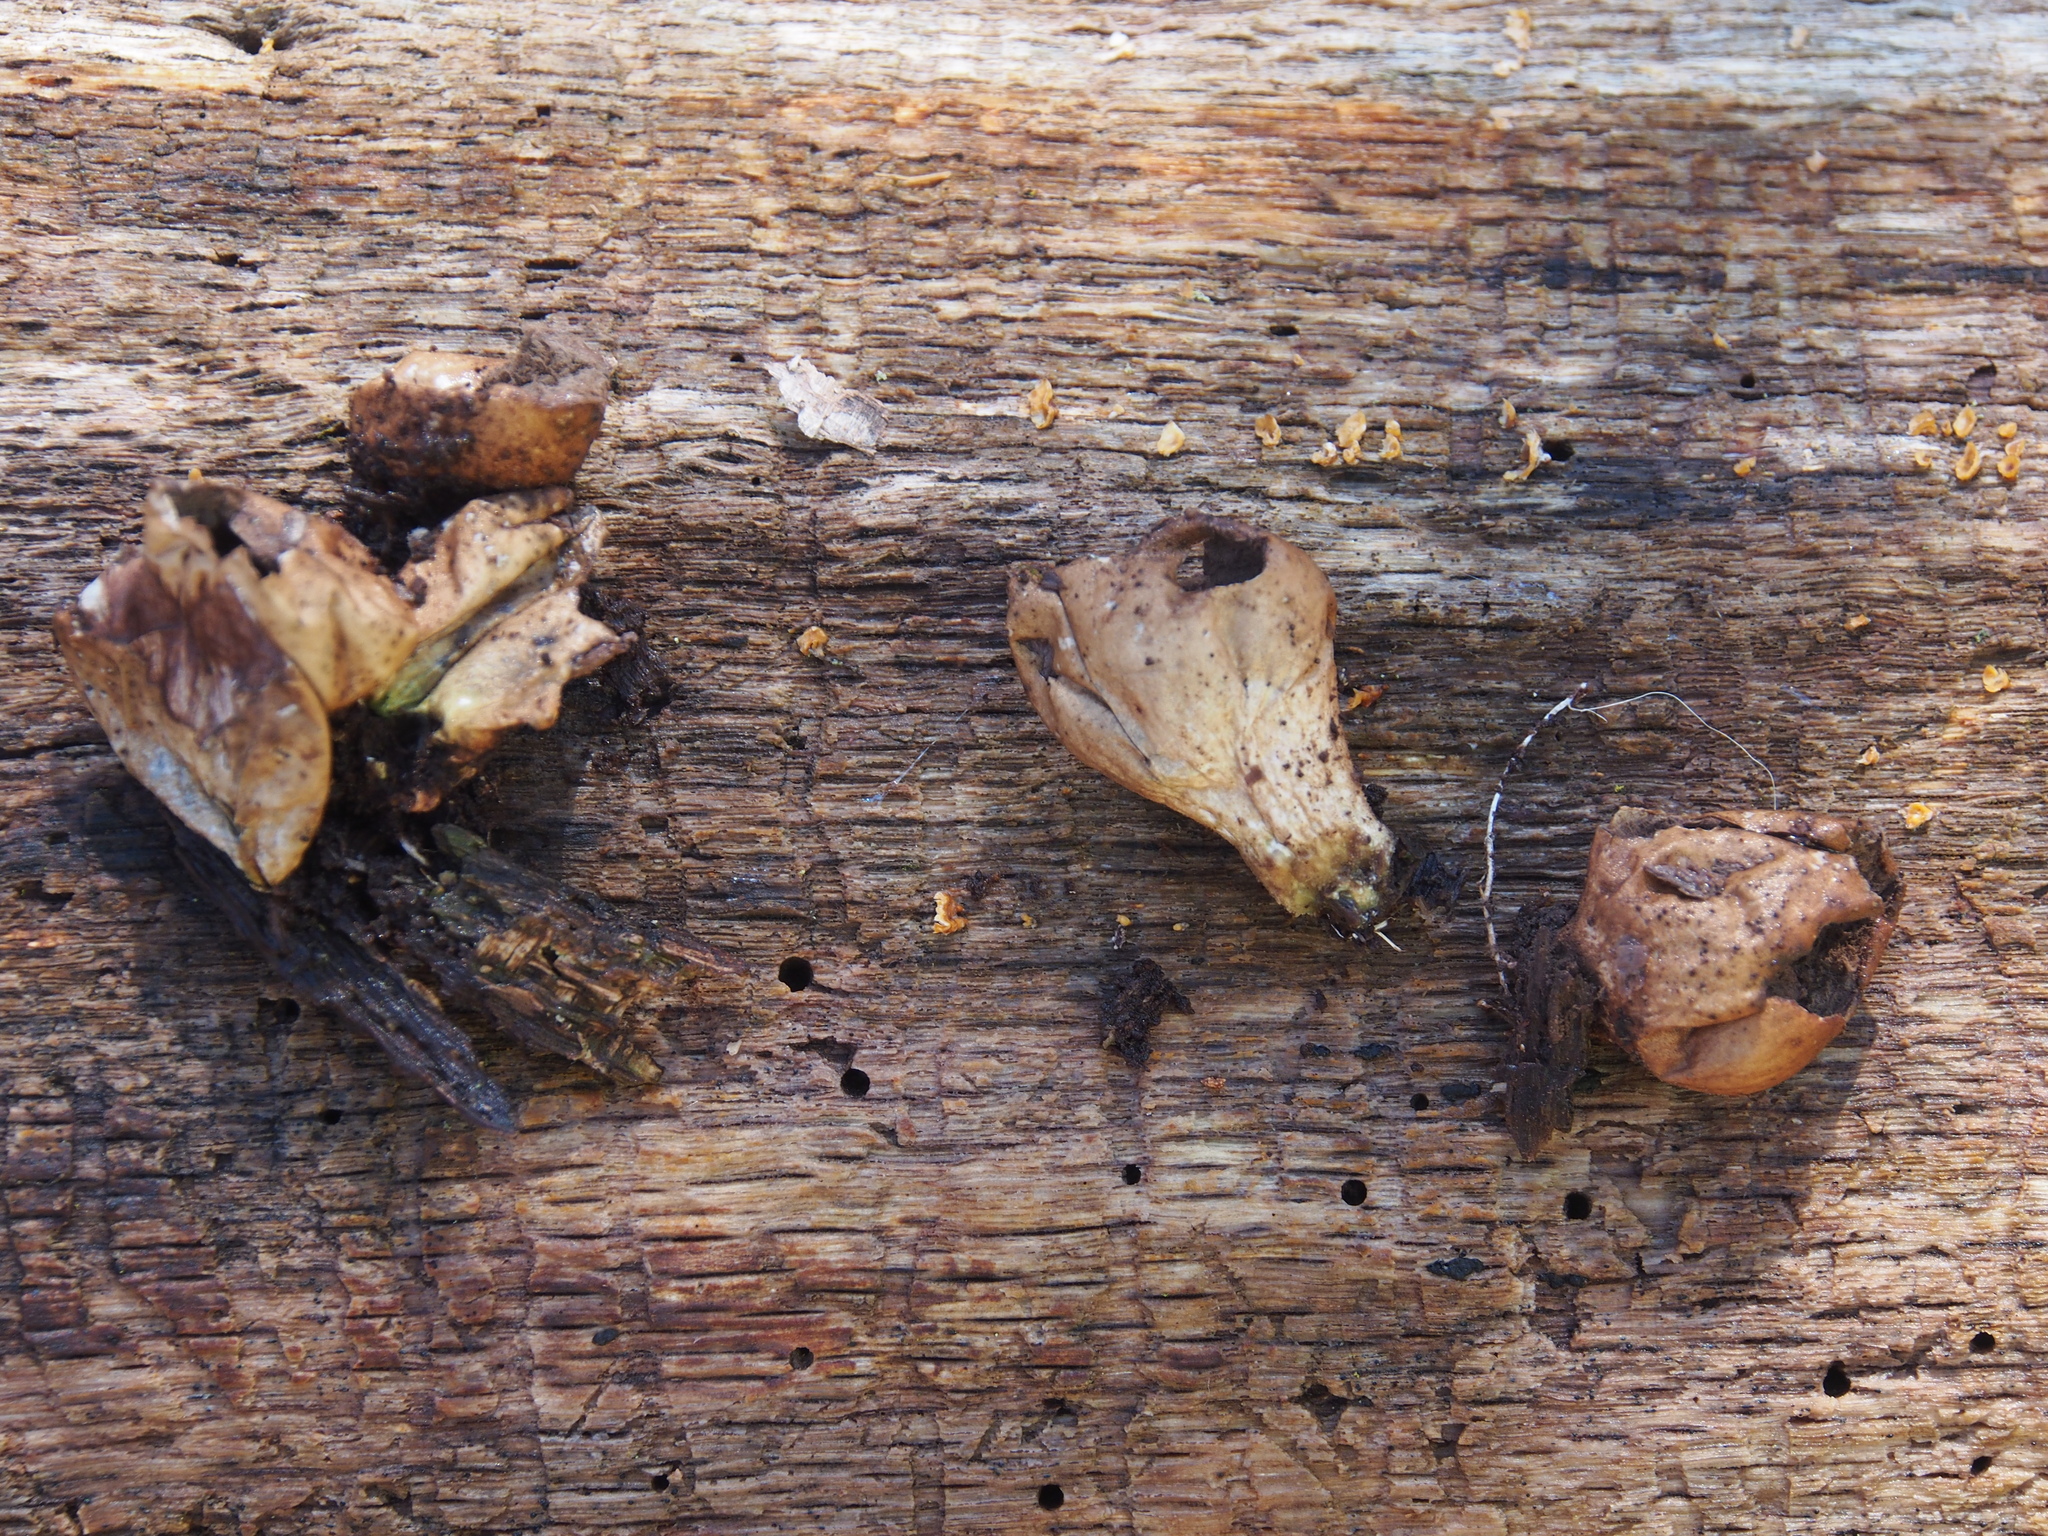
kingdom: Fungi
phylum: Basidiomycota
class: Agaricomycetes
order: Agaricales
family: Lycoperdaceae
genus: Apioperdon
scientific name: Apioperdon pyriforme
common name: Pear-shaped puffball
